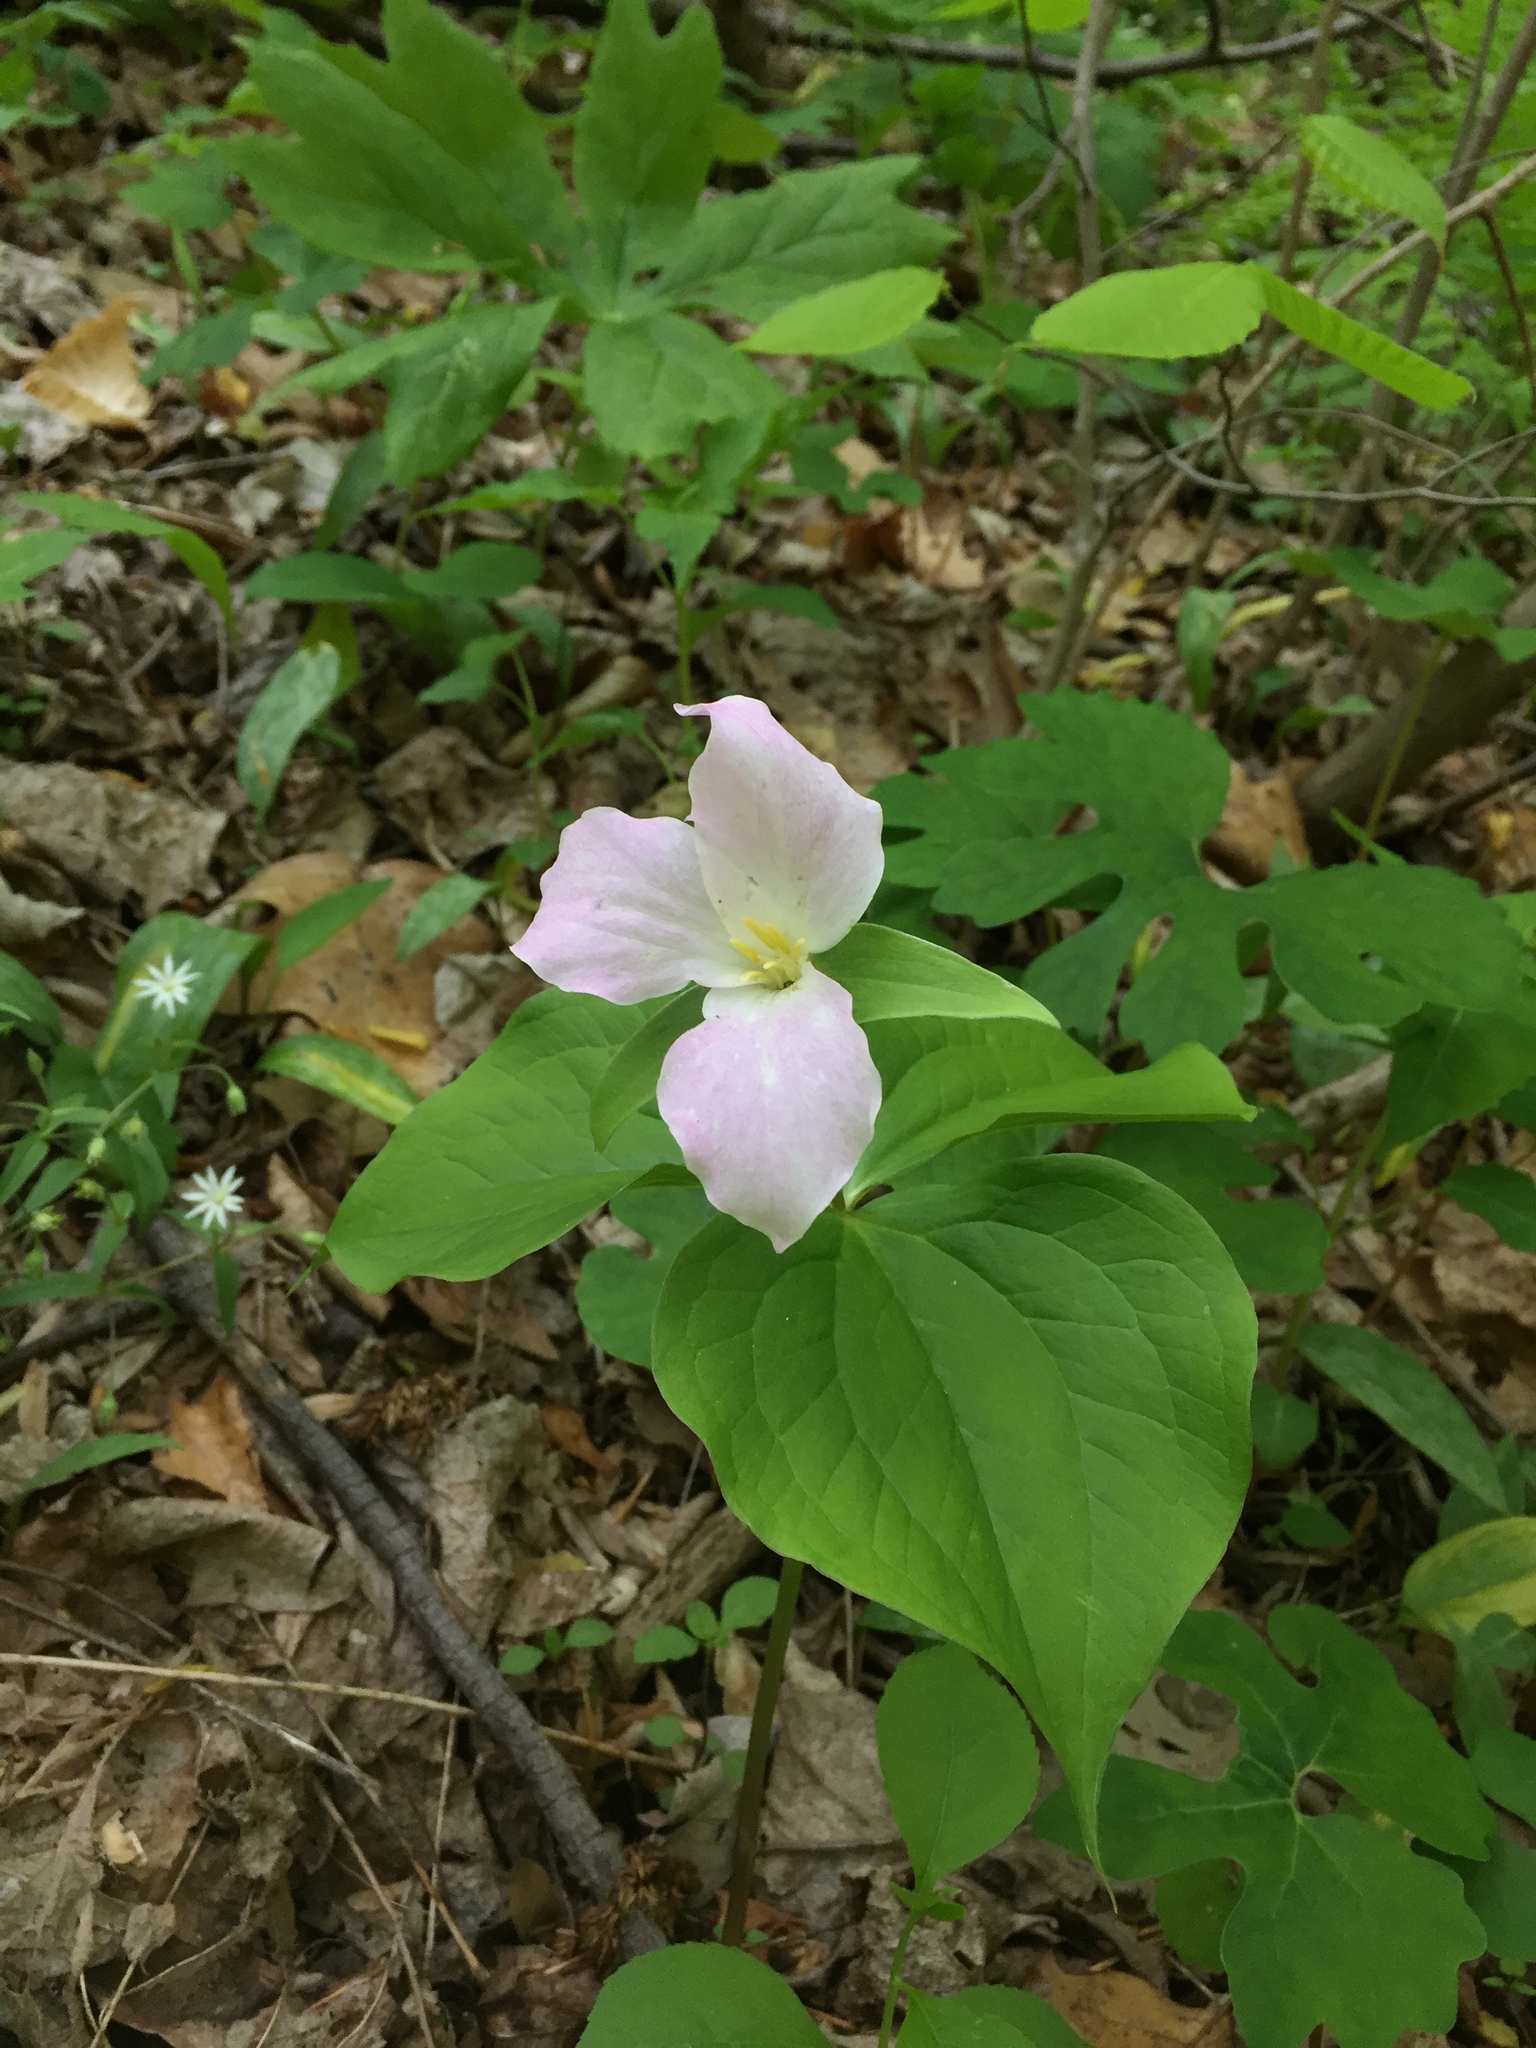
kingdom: Plantae
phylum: Tracheophyta
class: Liliopsida
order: Liliales
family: Melanthiaceae
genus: Trillium
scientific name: Trillium grandiflorum
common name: Great white trillium
